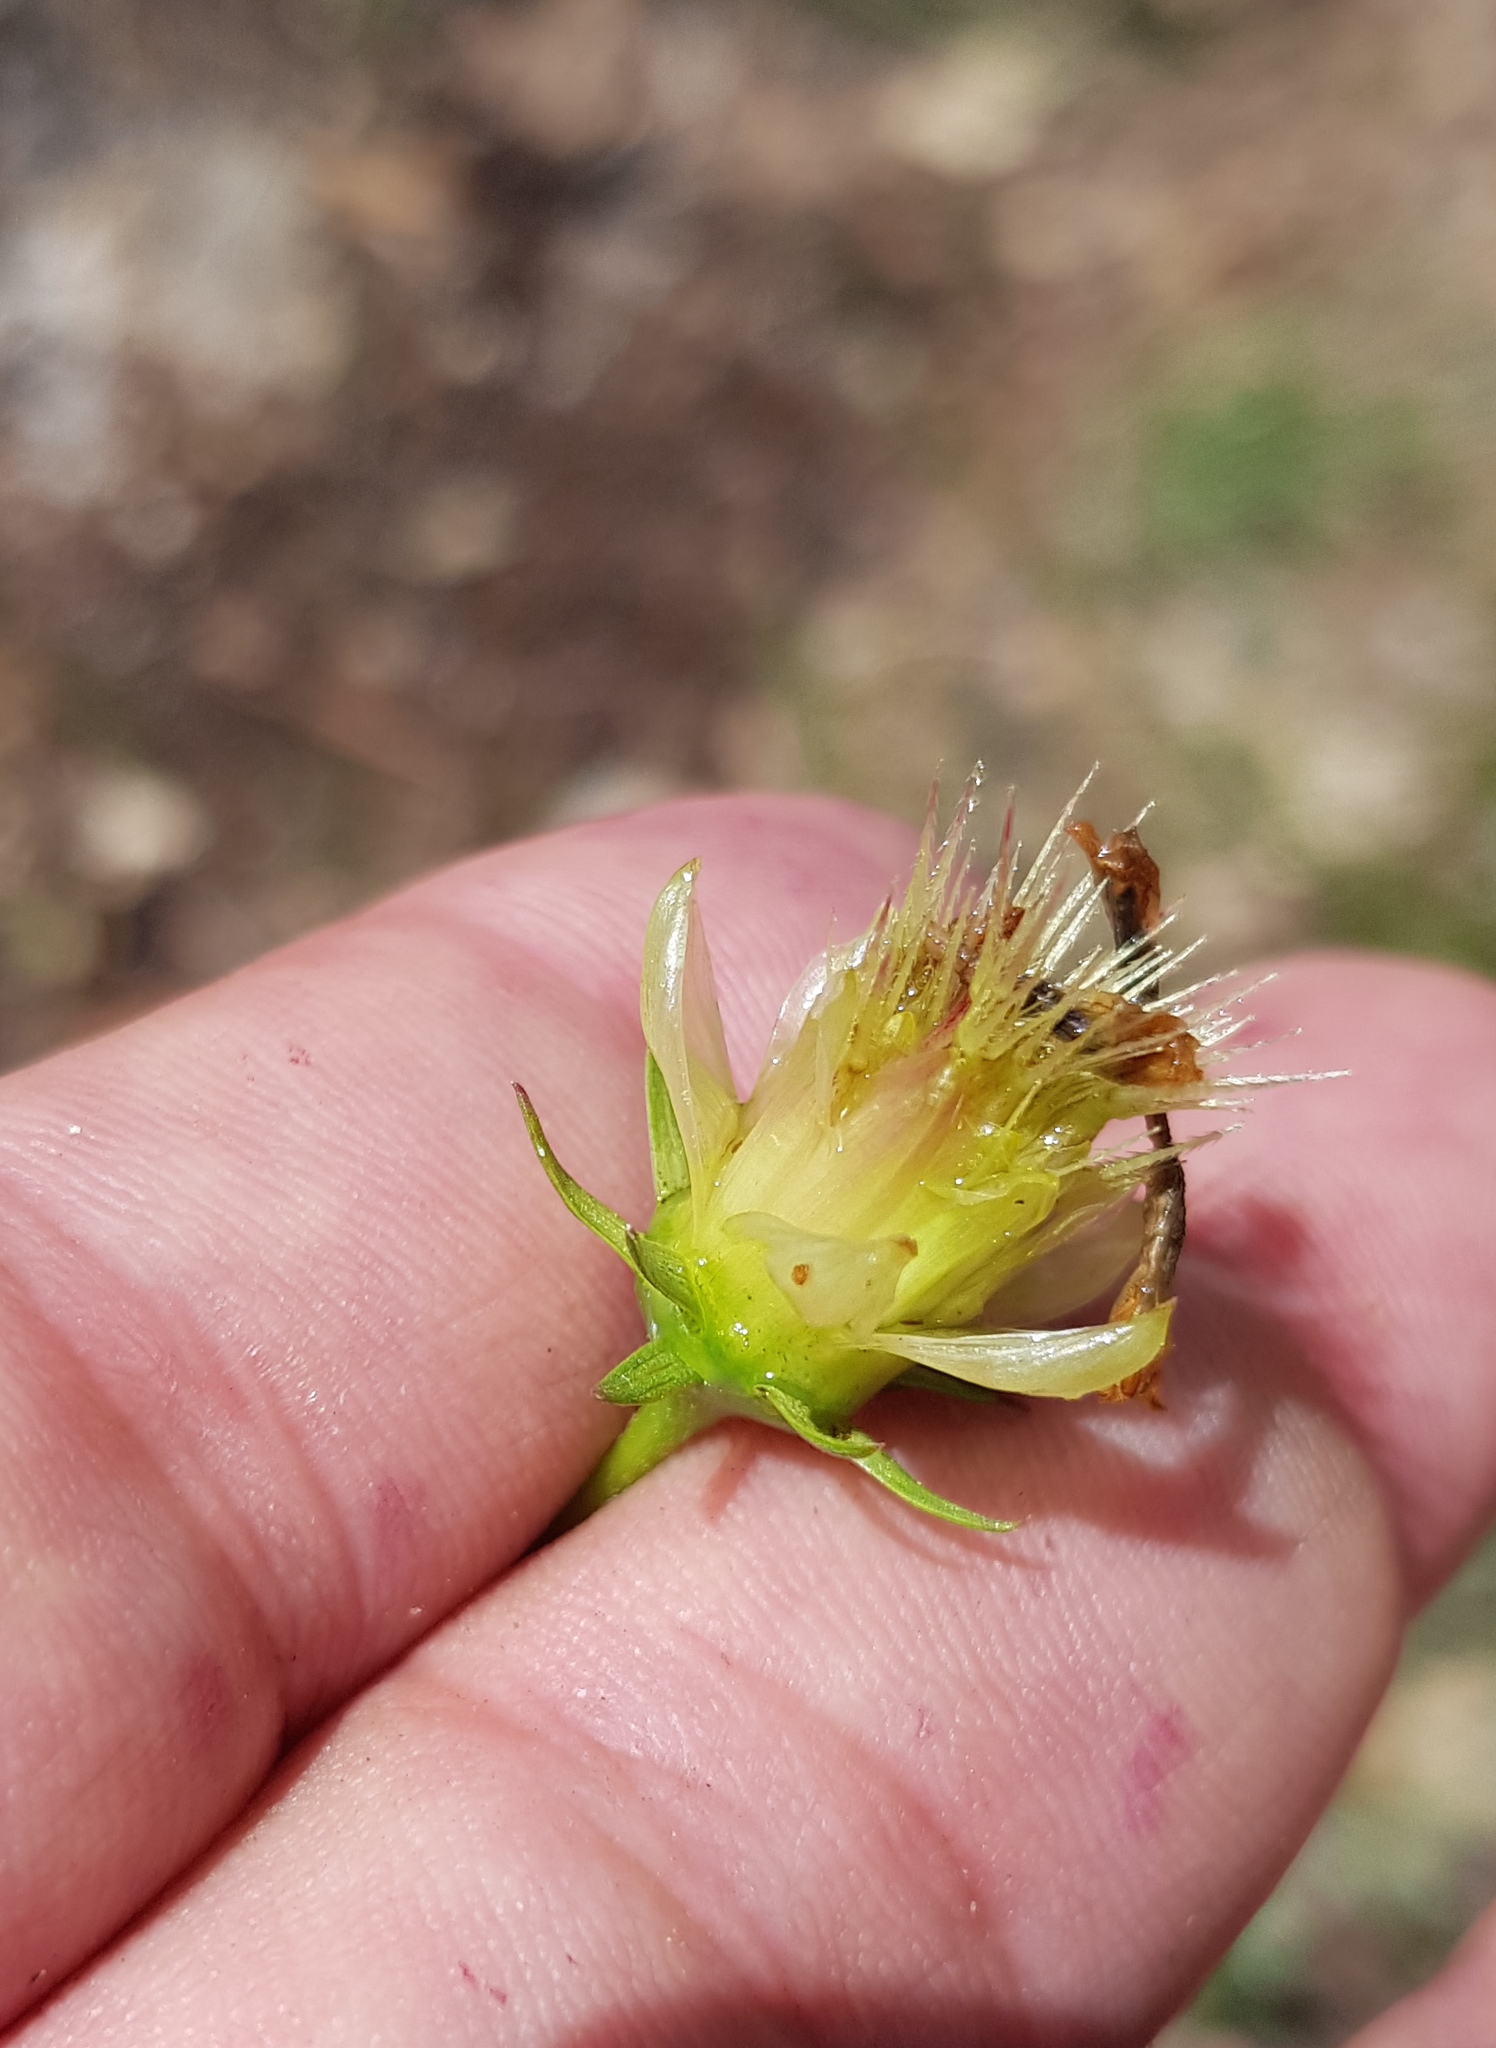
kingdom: Plantae
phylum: Tracheophyta
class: Magnoliopsida
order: Asterales
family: Asteraceae
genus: Cosmos
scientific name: Cosmos crithmifolius
